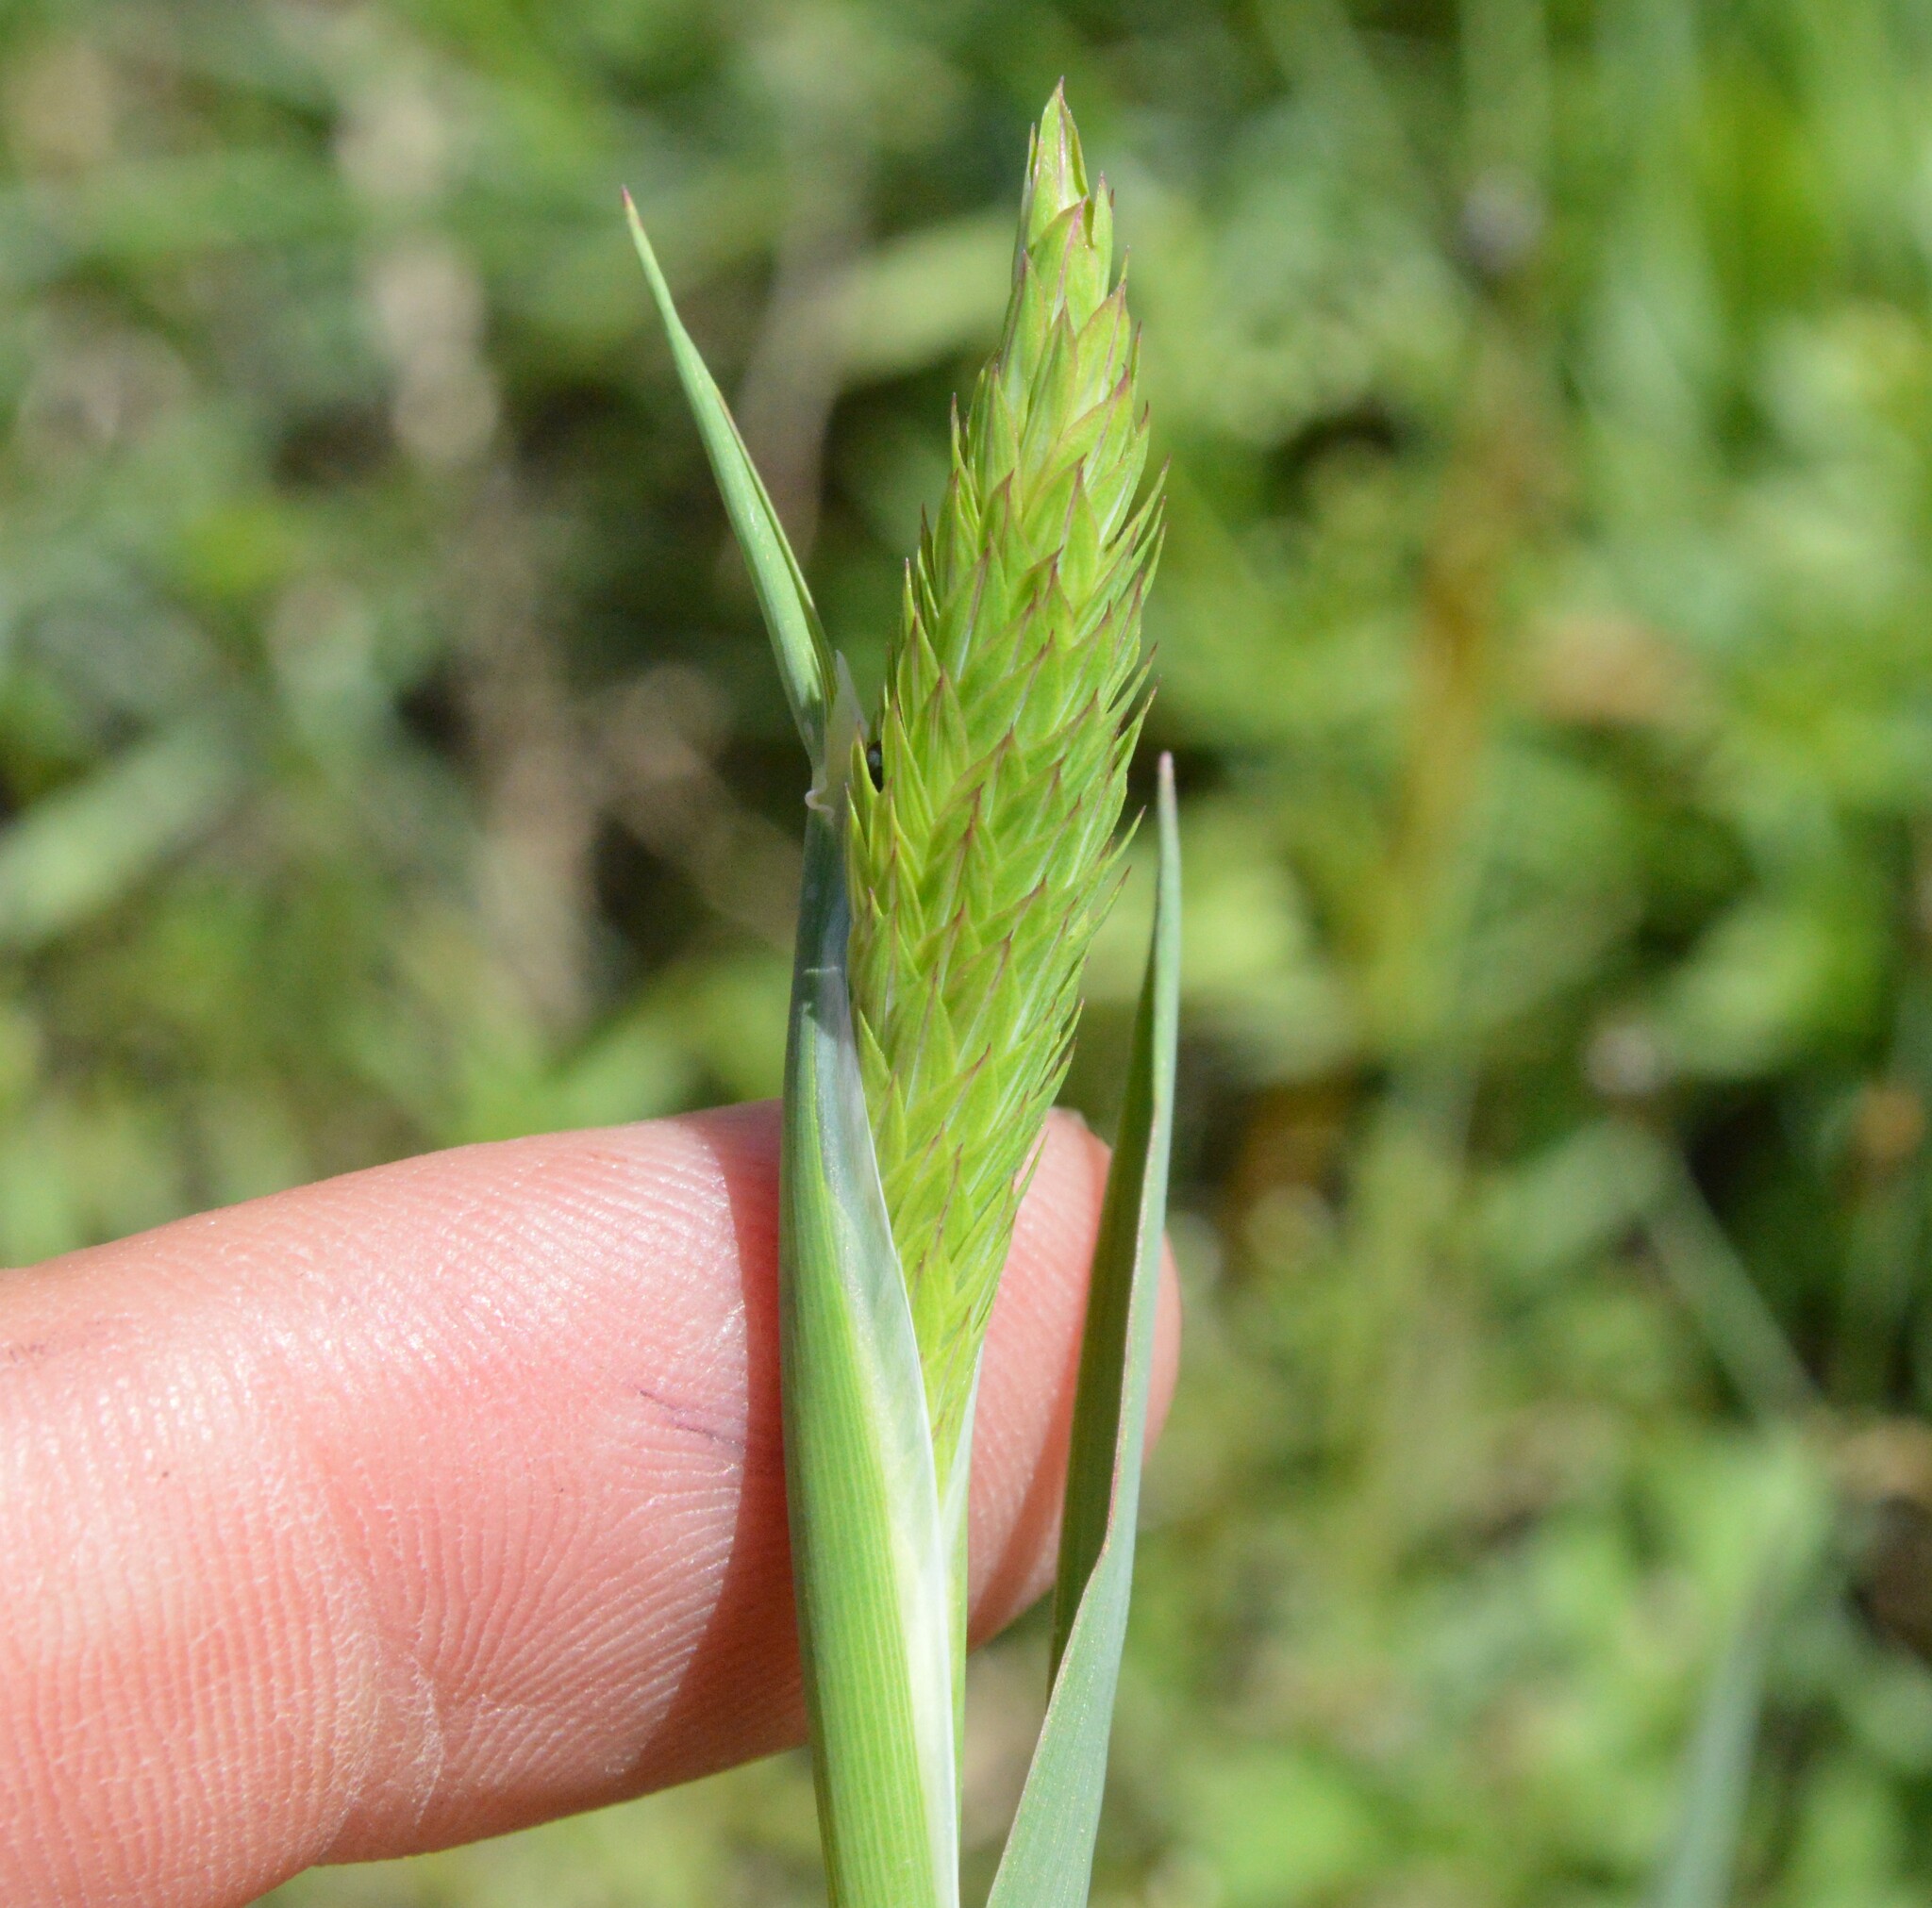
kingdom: Plantae
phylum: Tracheophyta
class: Liliopsida
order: Poales
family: Poaceae
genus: Phalaris
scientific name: Phalaris caroliniana
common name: May grass
